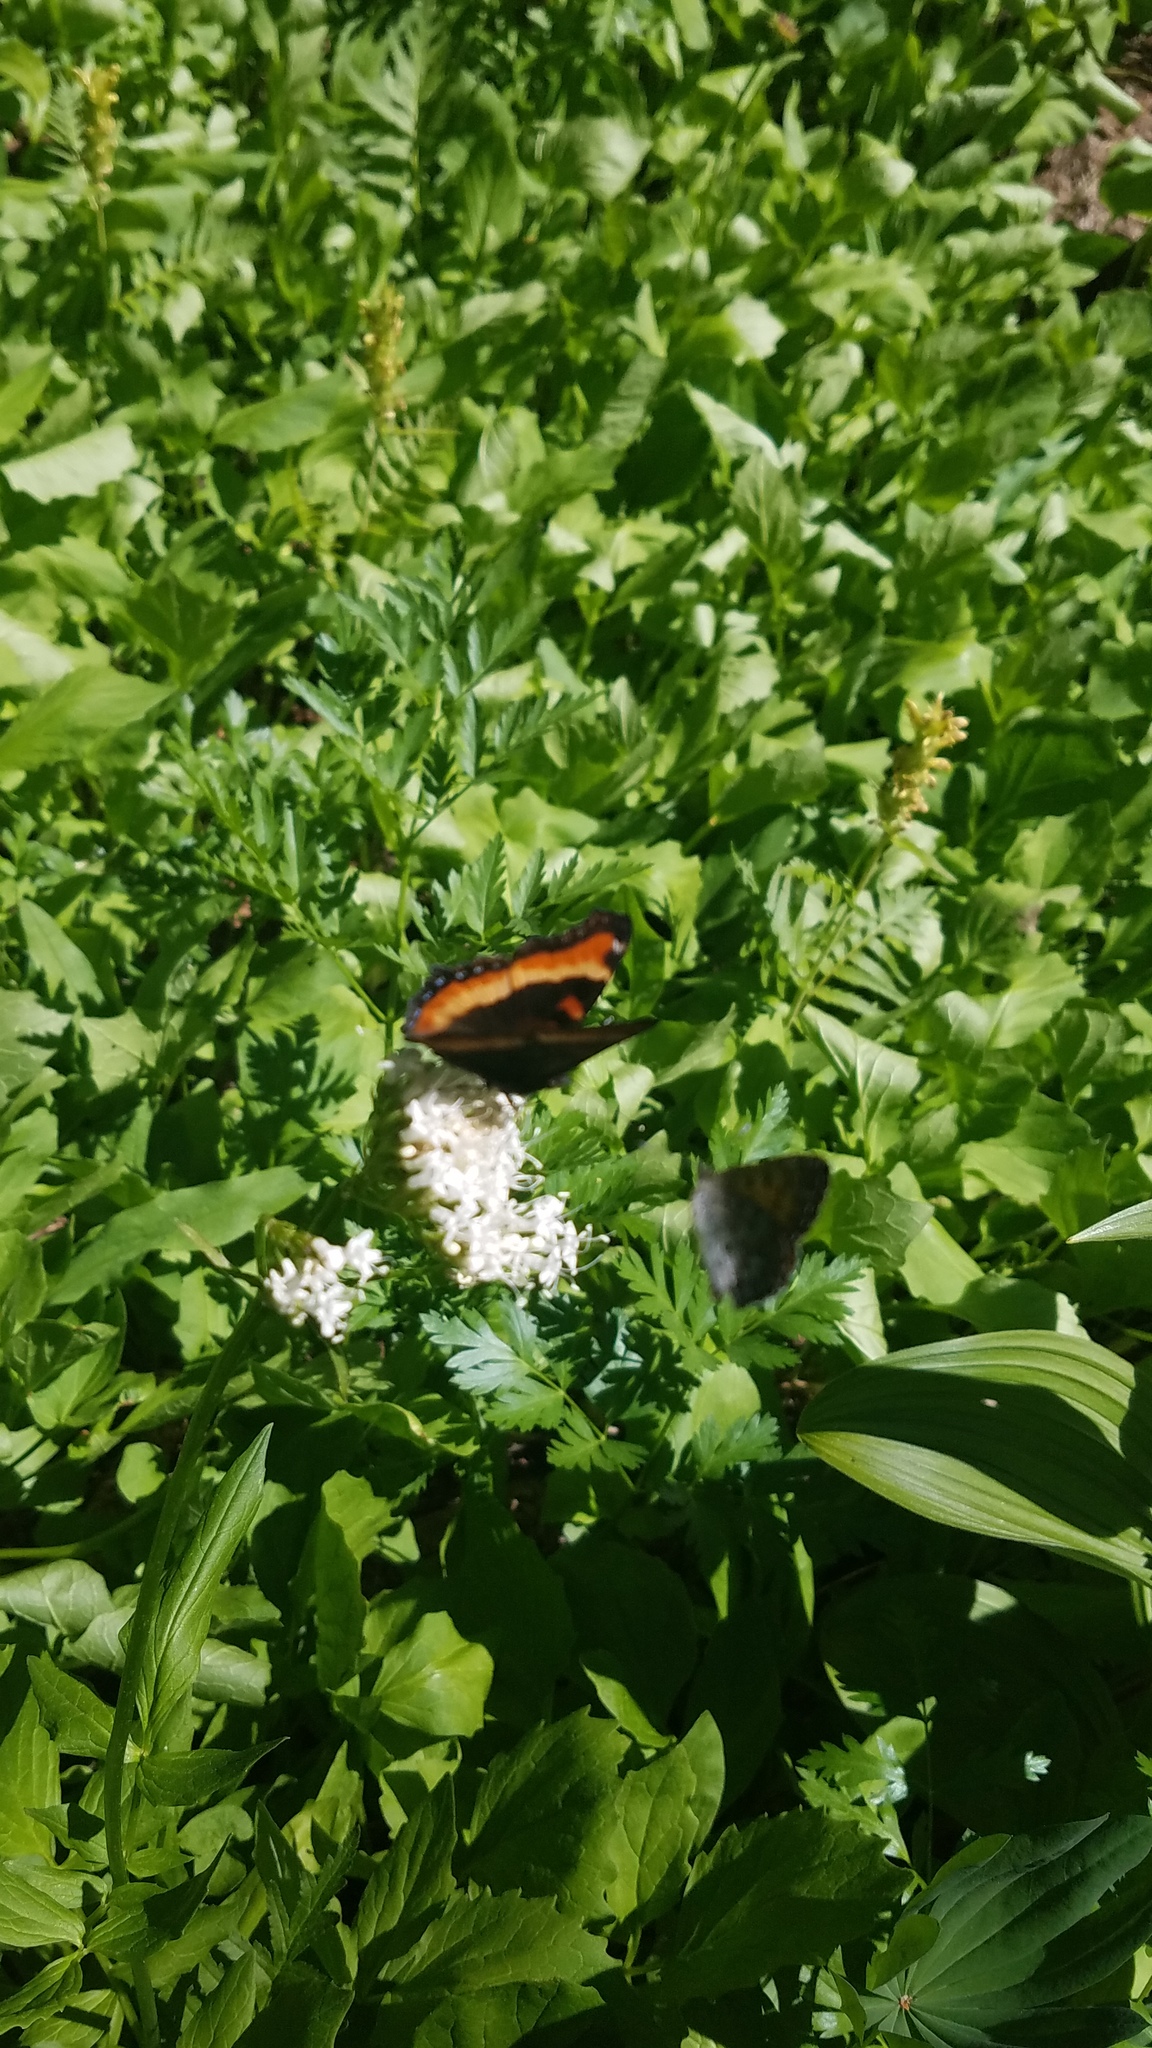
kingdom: Animalia
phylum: Arthropoda
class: Insecta
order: Lepidoptera
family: Nymphalidae
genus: Aglais
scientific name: Aglais milberti
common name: Milbert's tortoiseshell
